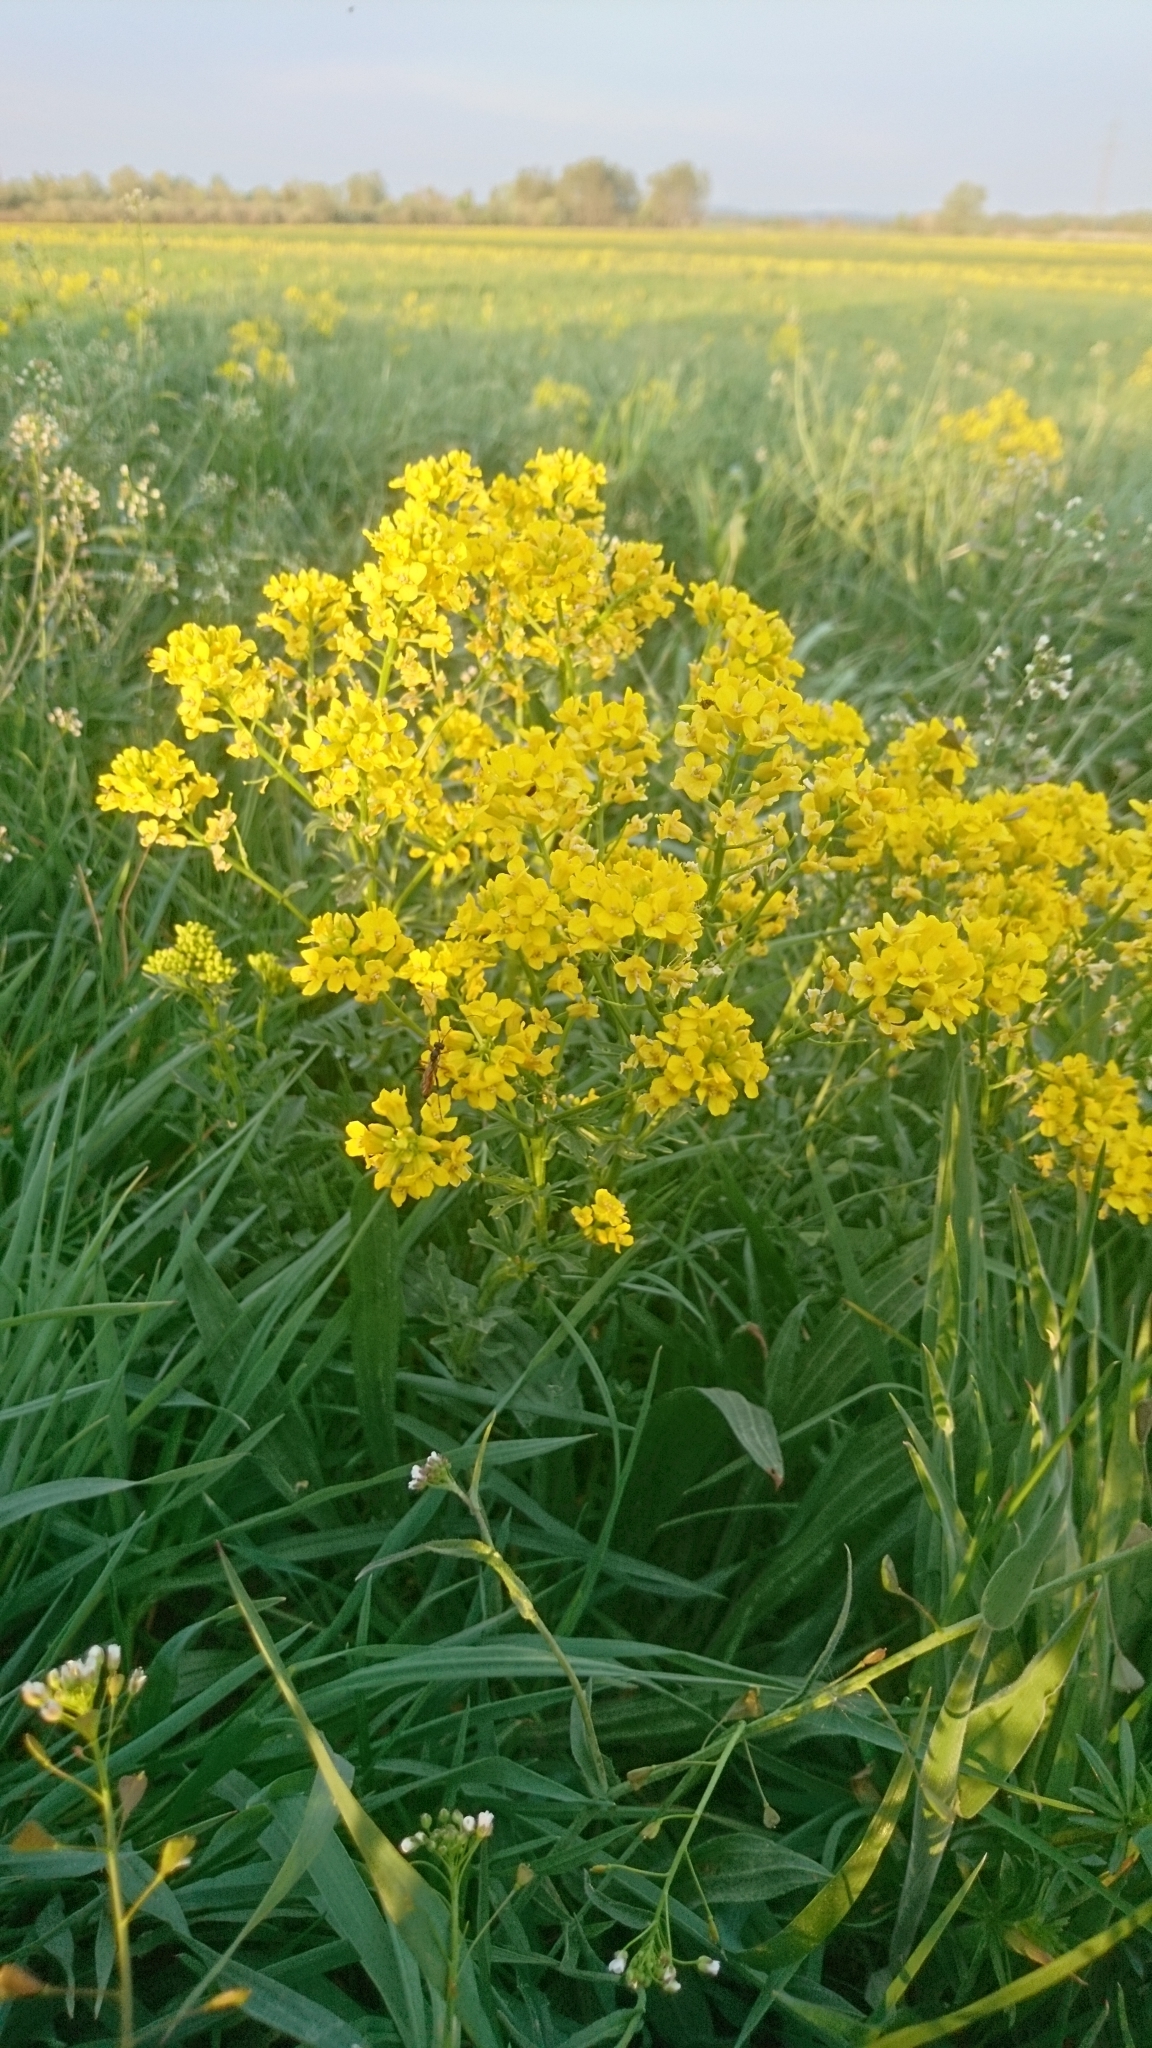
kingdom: Plantae
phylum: Tracheophyta
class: Magnoliopsida
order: Brassicales
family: Brassicaceae
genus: Barbarea
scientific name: Barbarea intermedia
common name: Medium-flowered winter-cress
